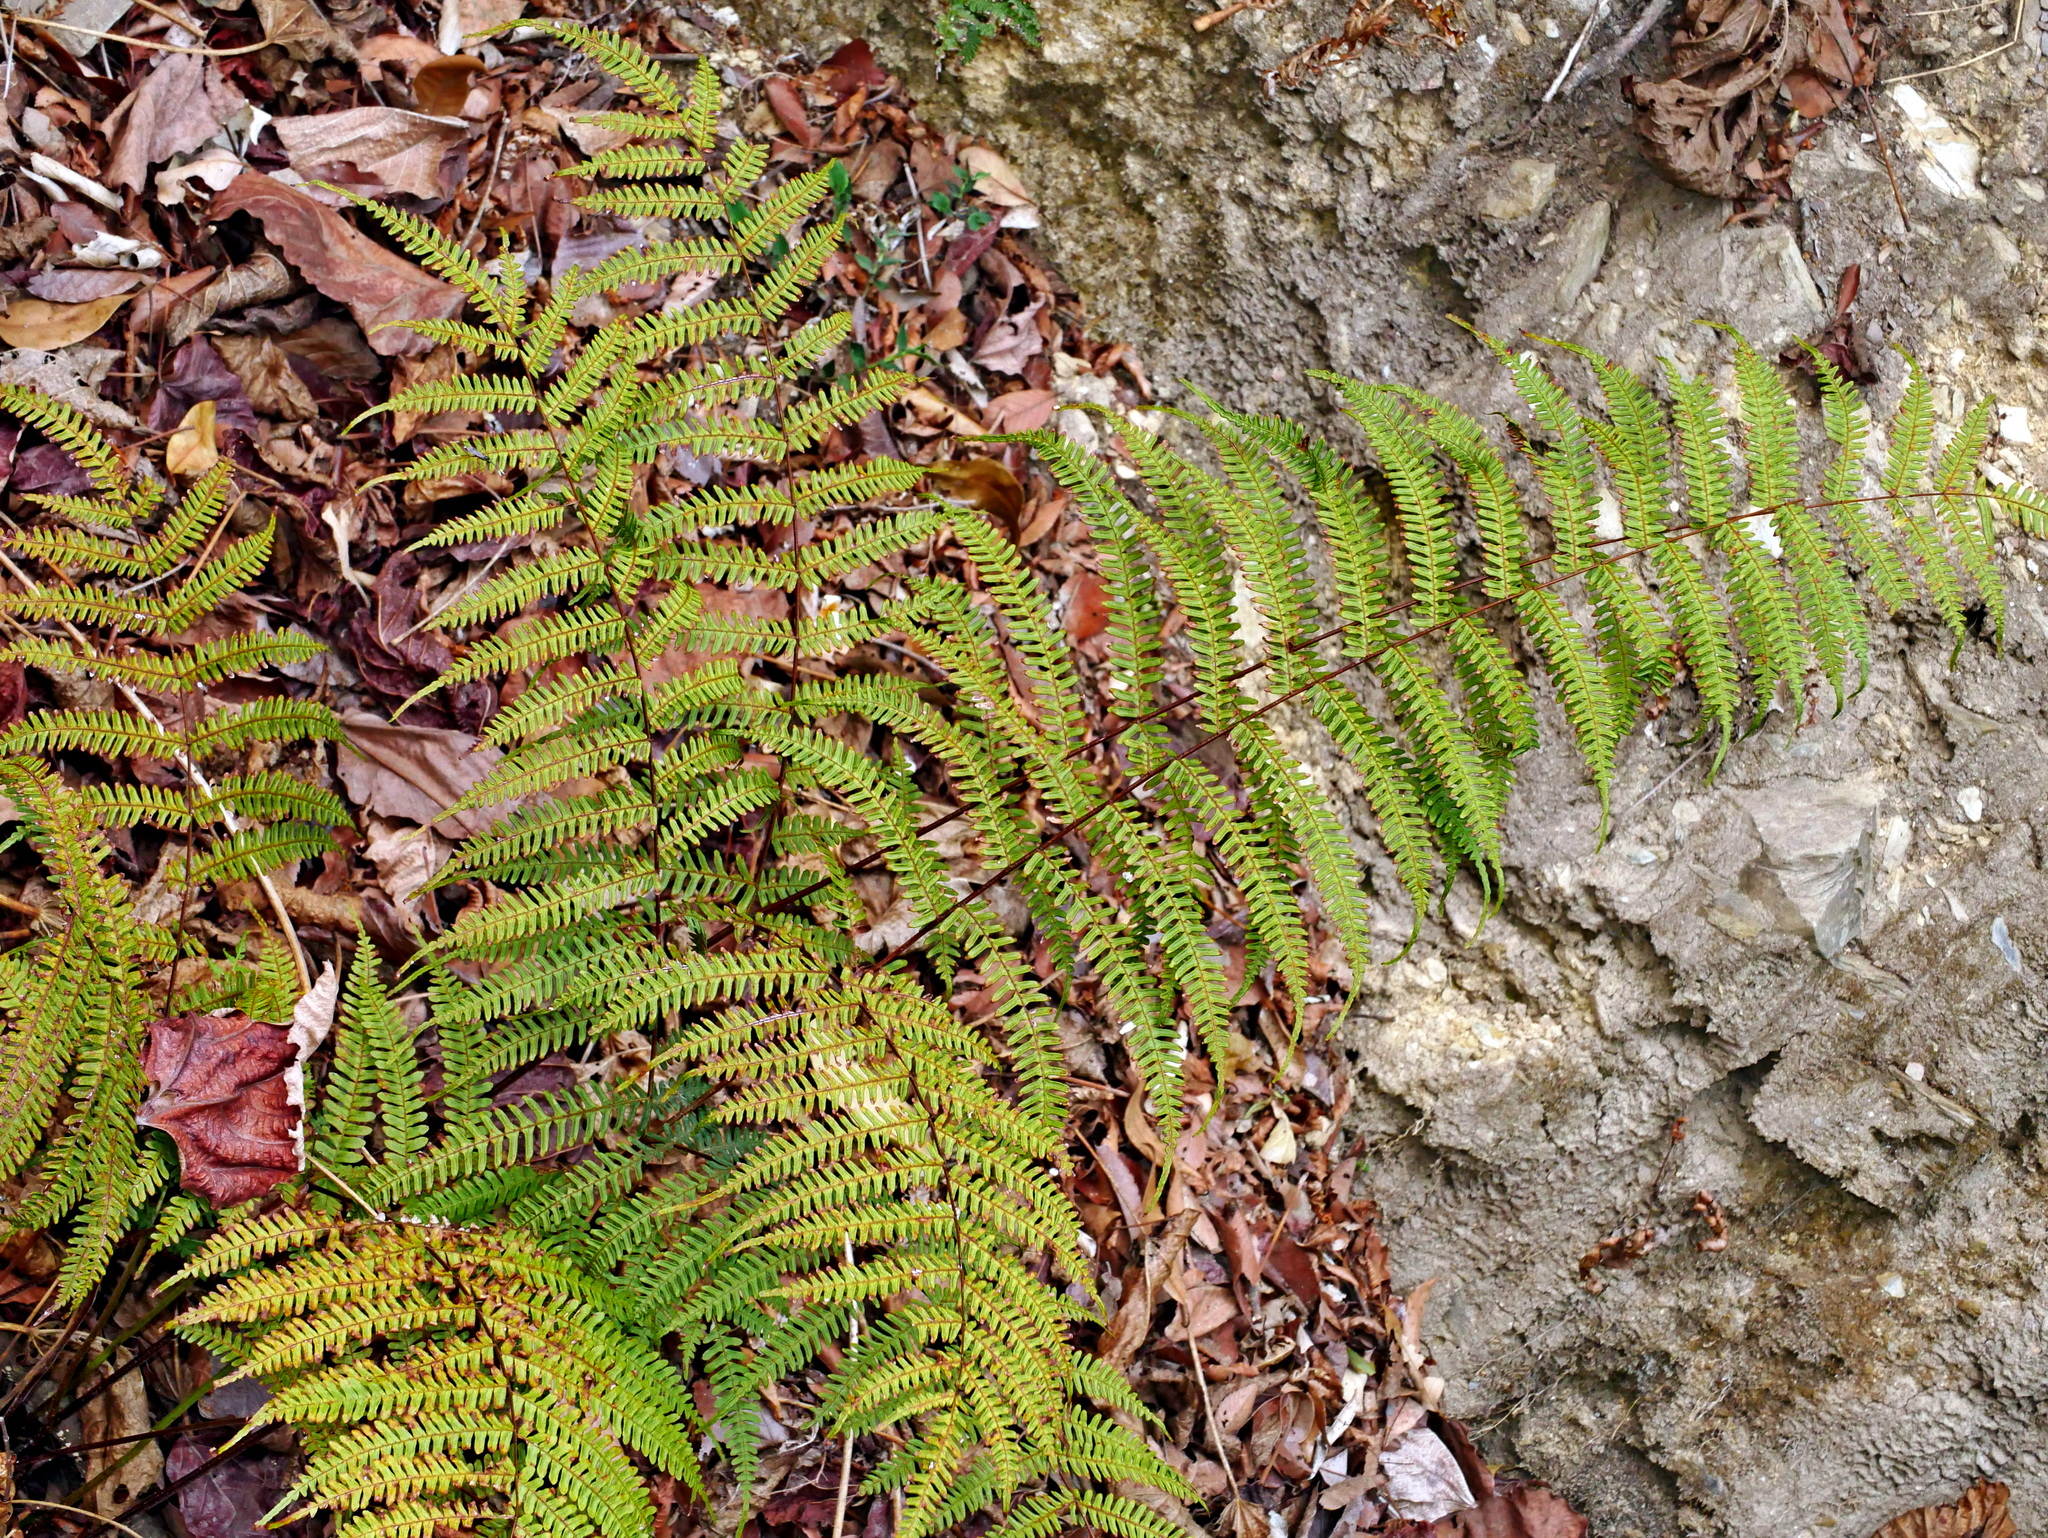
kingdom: Plantae
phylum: Tracheophyta
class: Polypodiopsida
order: Polypodiales
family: Pteridaceae
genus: Pteris
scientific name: Pteris longipes
